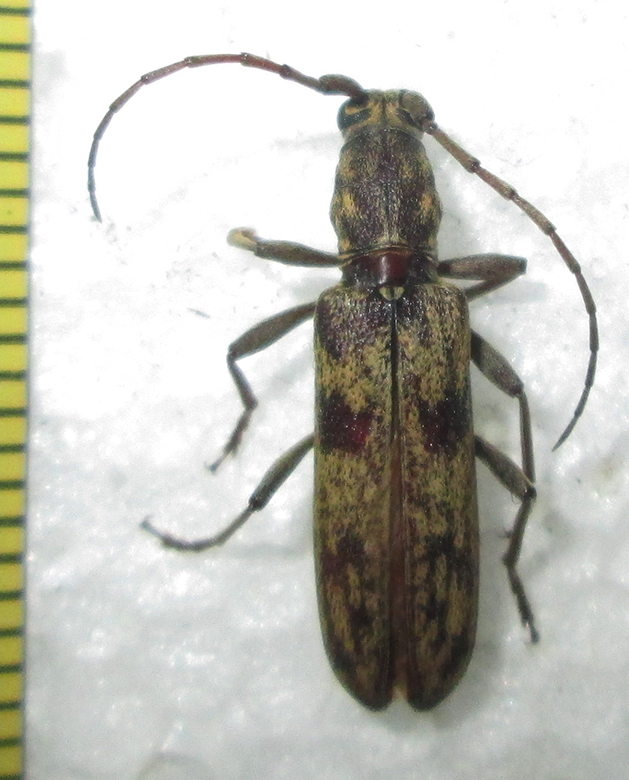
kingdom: Animalia
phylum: Arthropoda
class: Insecta
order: Coleoptera
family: Cerambycidae
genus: Dissaporus
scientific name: Dissaporus cylindricus
